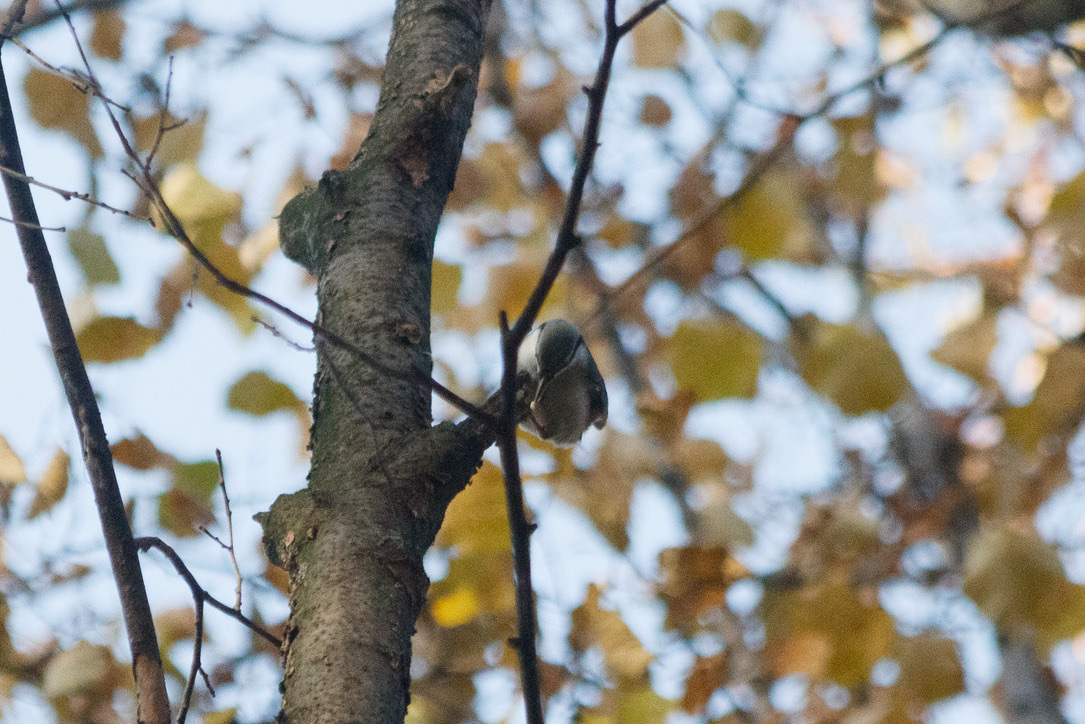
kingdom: Animalia
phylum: Chordata
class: Aves
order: Passeriformes
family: Sittidae
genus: Sitta
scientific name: Sitta europaea
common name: Eurasian nuthatch
